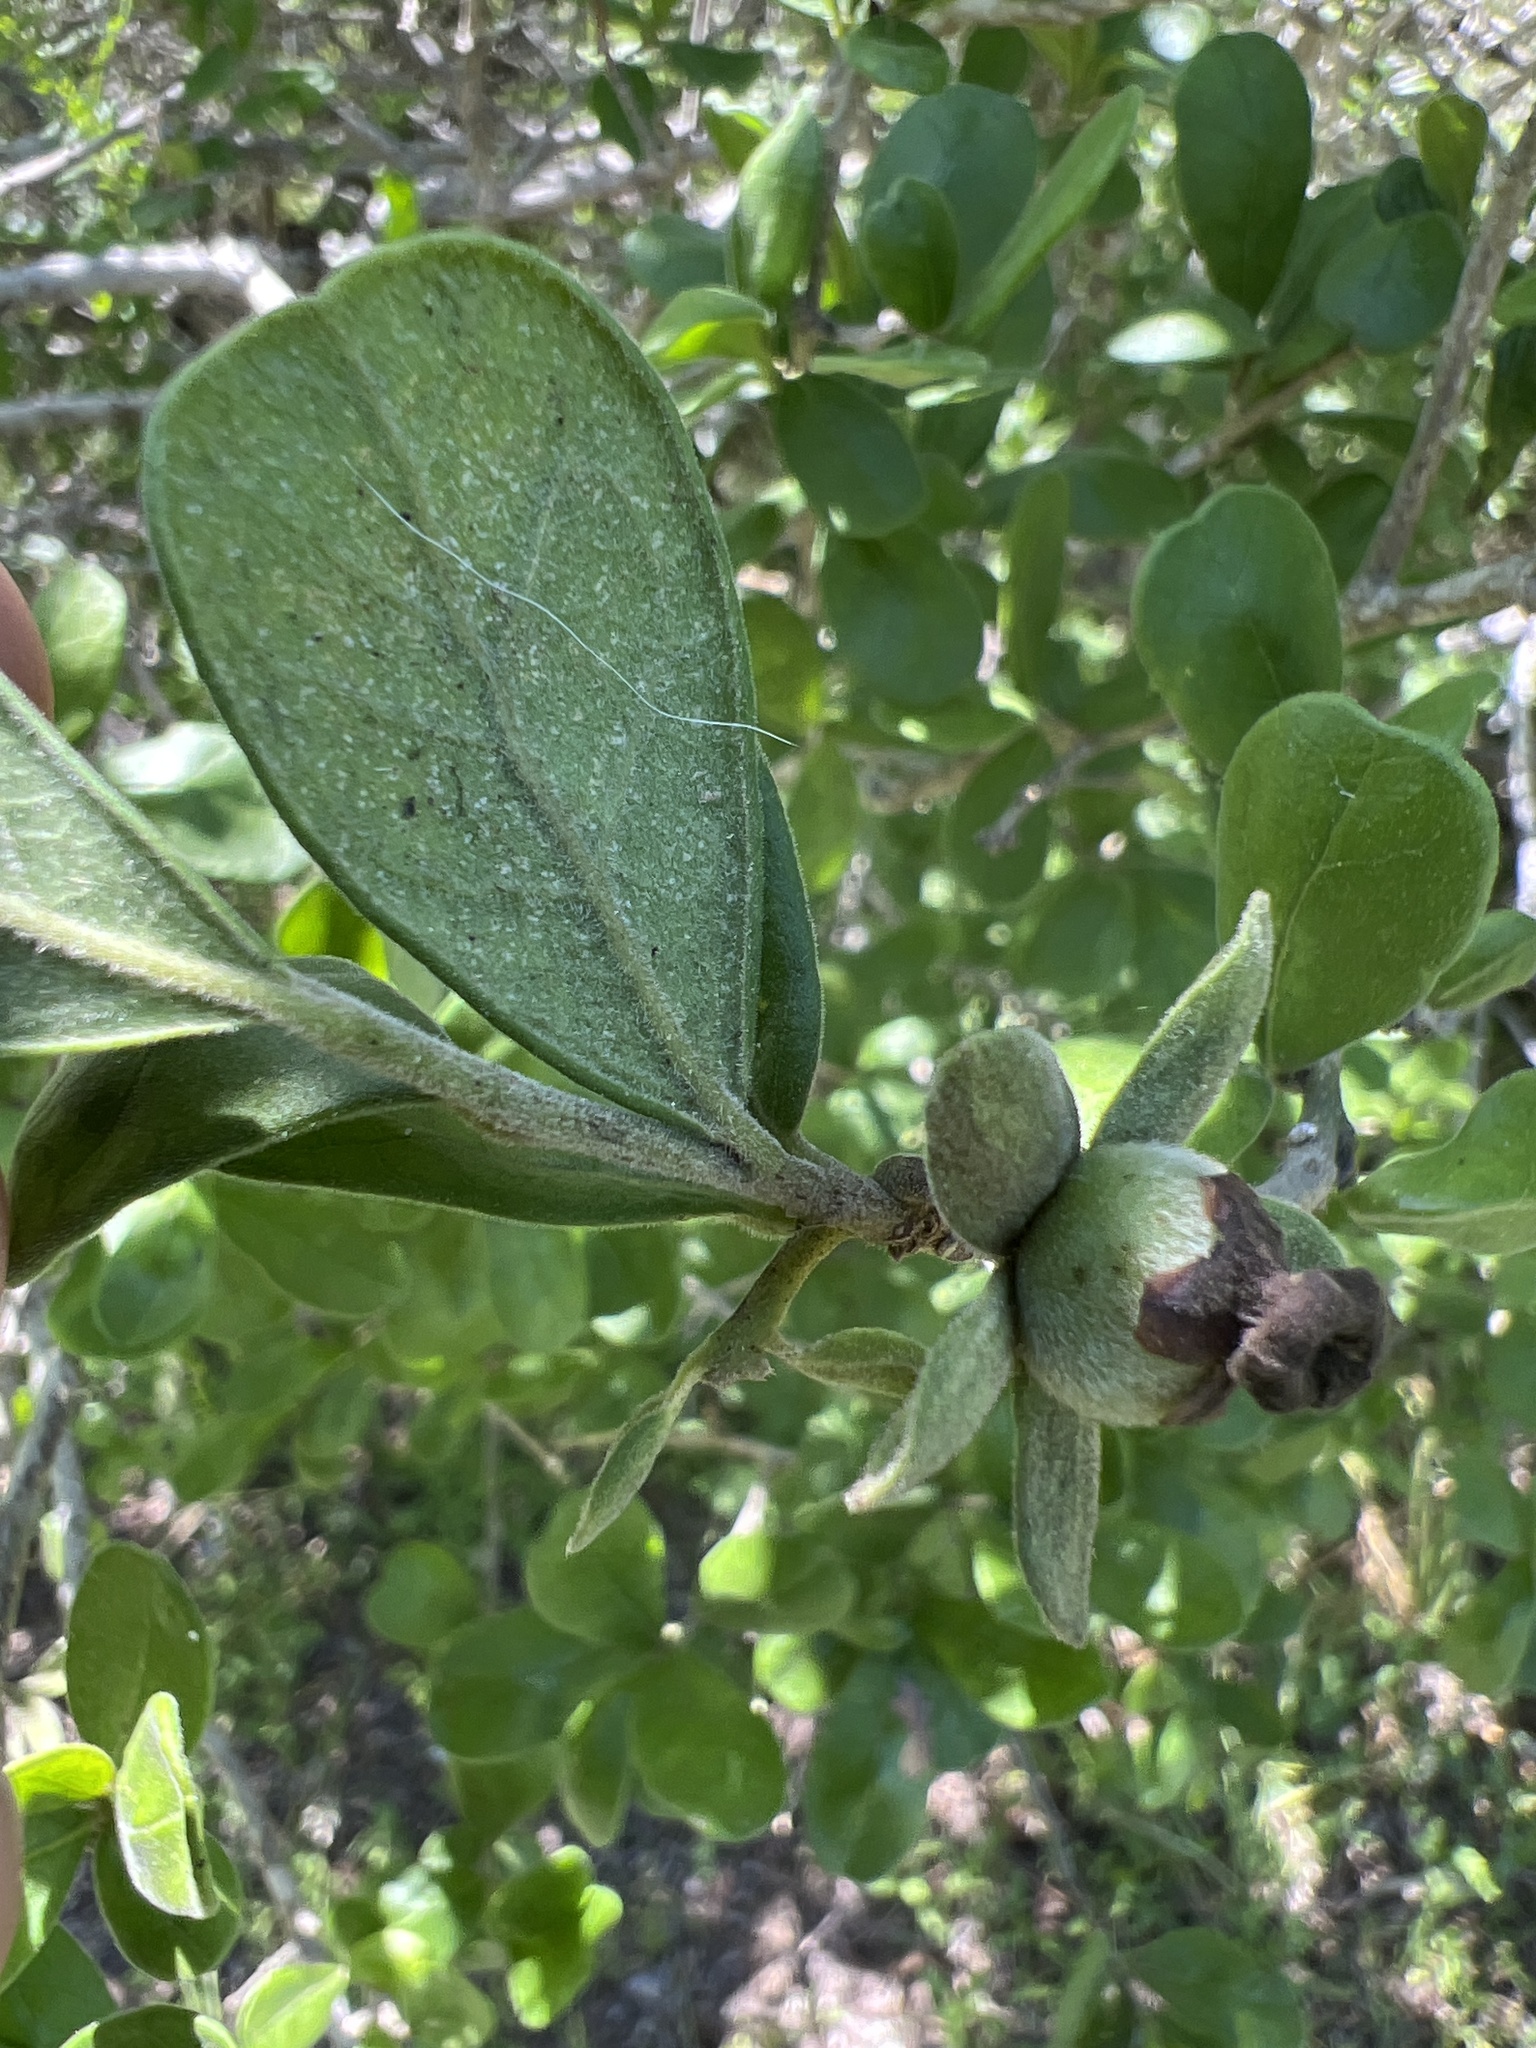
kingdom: Plantae
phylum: Tracheophyta
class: Magnoliopsida
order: Ericales
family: Ebenaceae
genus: Diospyros
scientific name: Diospyros texana
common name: Texas persimmon
